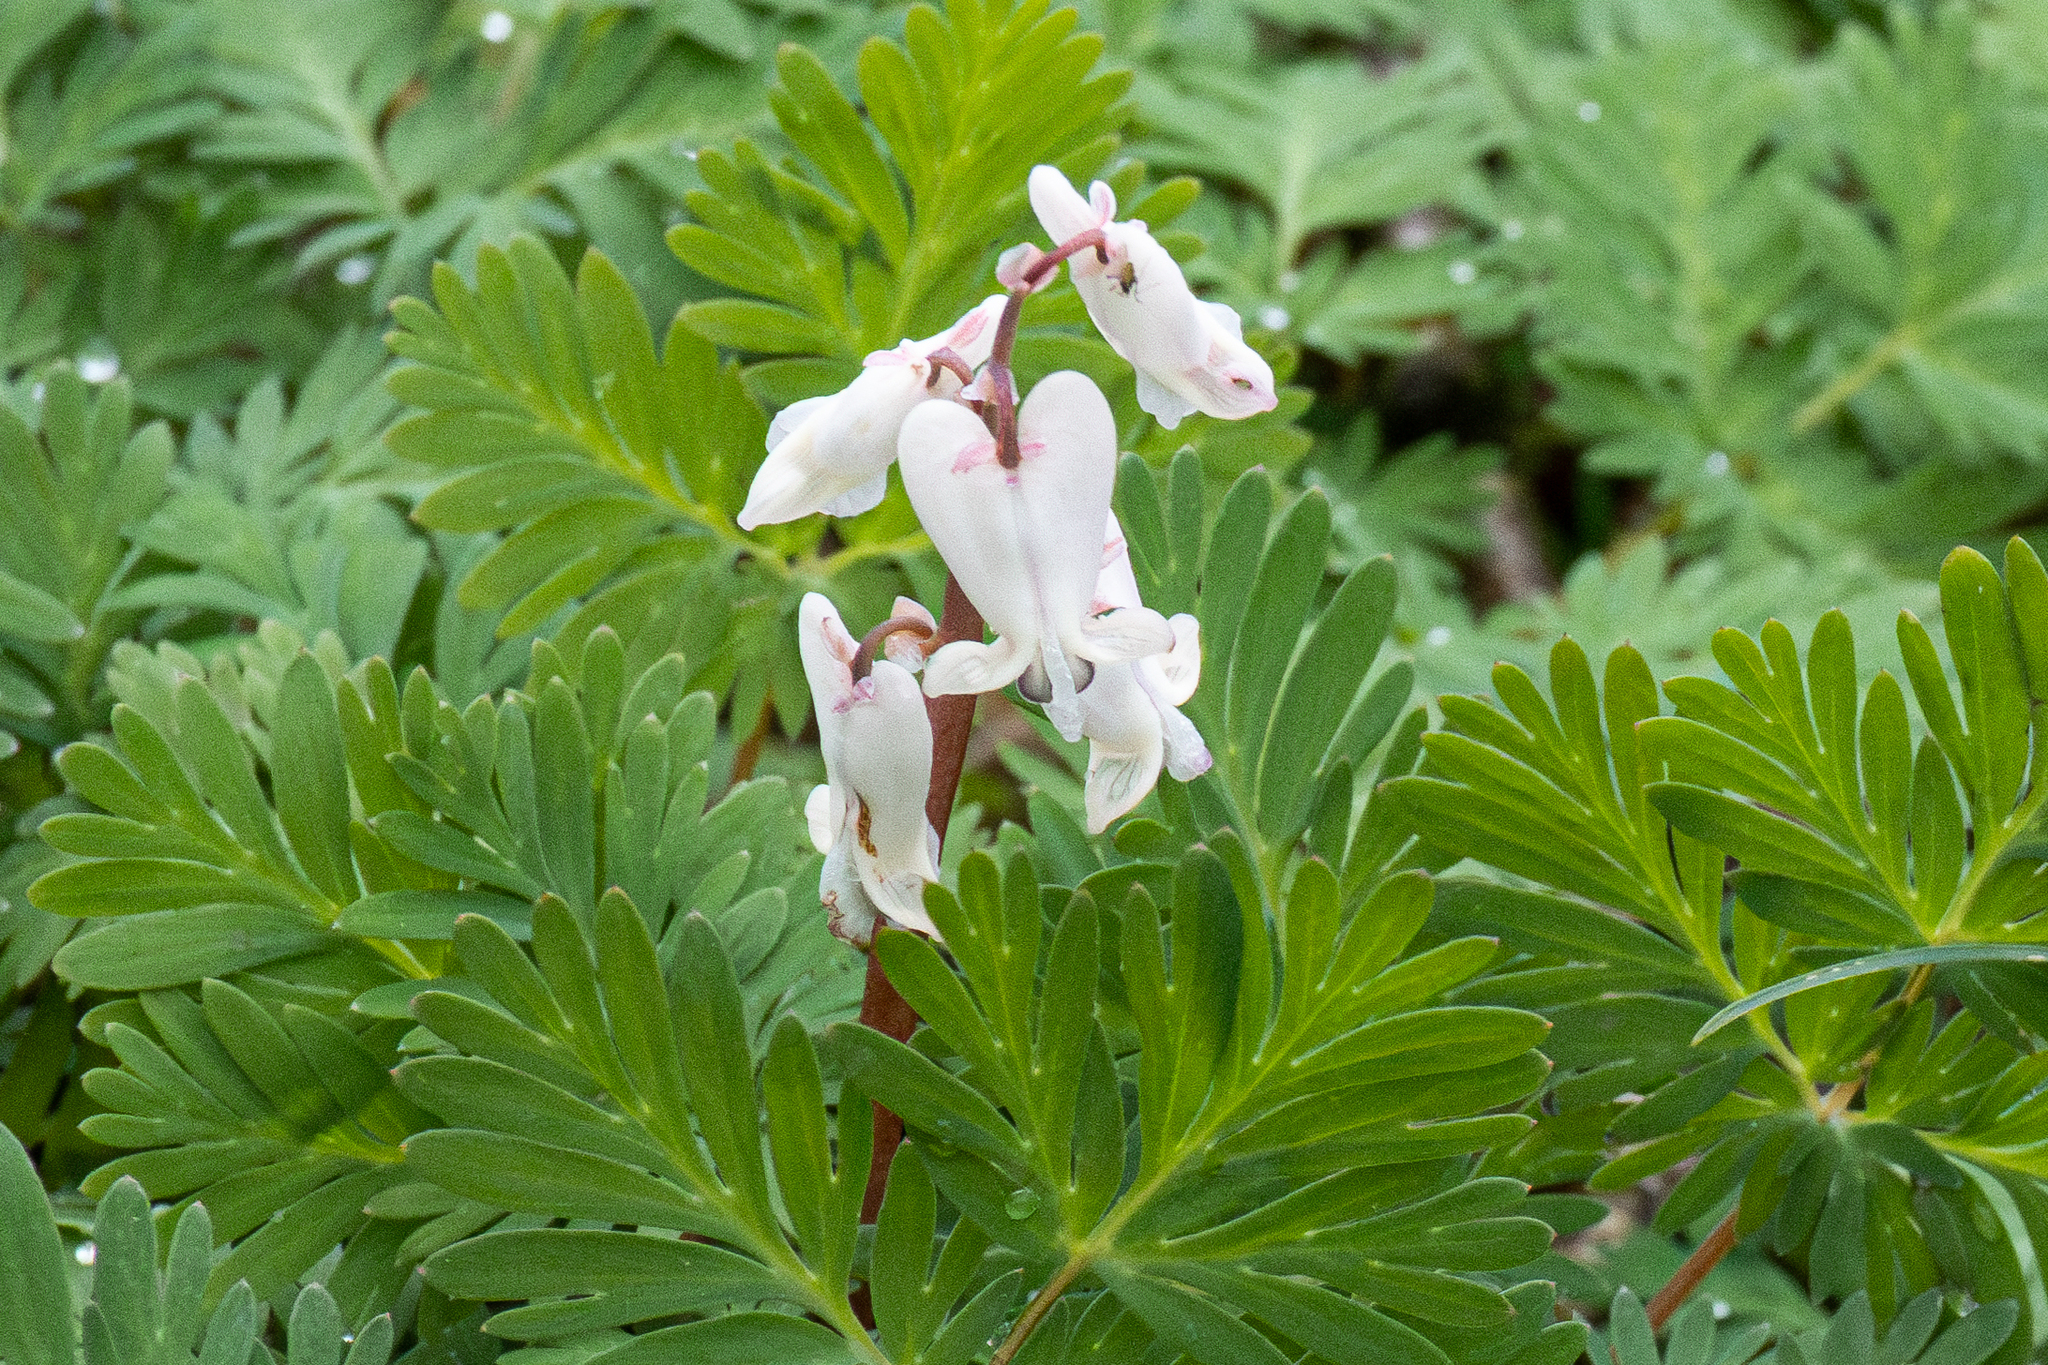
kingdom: Plantae
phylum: Tracheophyta
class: Magnoliopsida
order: Ranunculales
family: Papaveraceae
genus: Dicentra
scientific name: Dicentra canadensis
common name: Squirrel-corn
